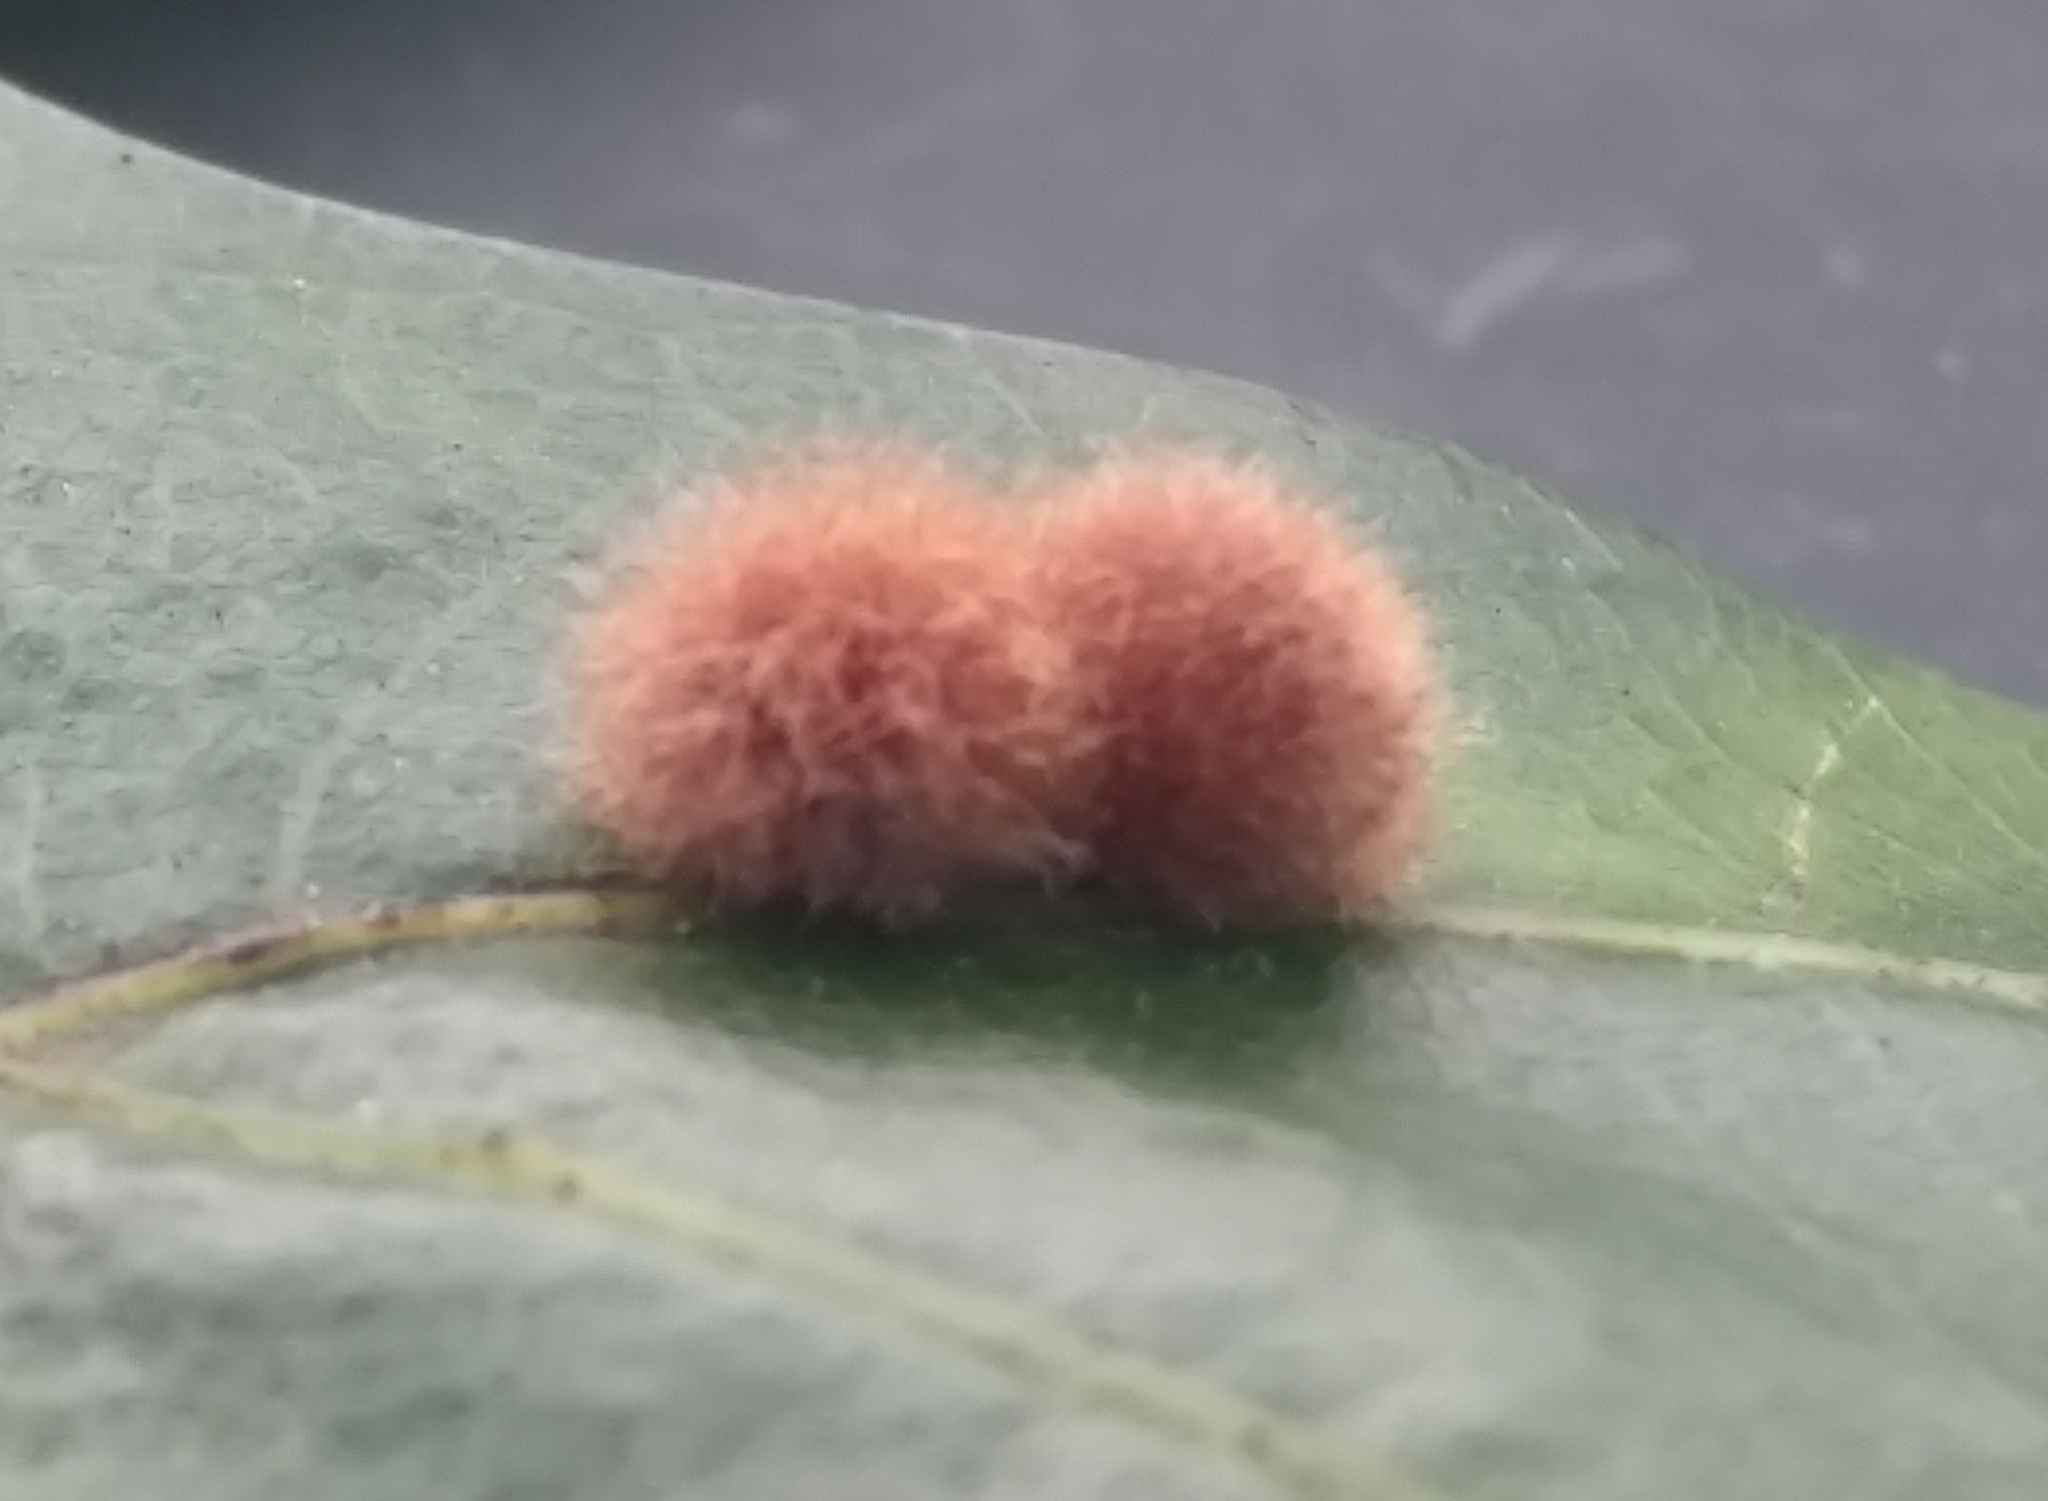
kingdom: Animalia
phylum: Arthropoda
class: Insecta
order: Hymenoptera
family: Cynipidae
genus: Callirhytis
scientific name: Callirhytis
